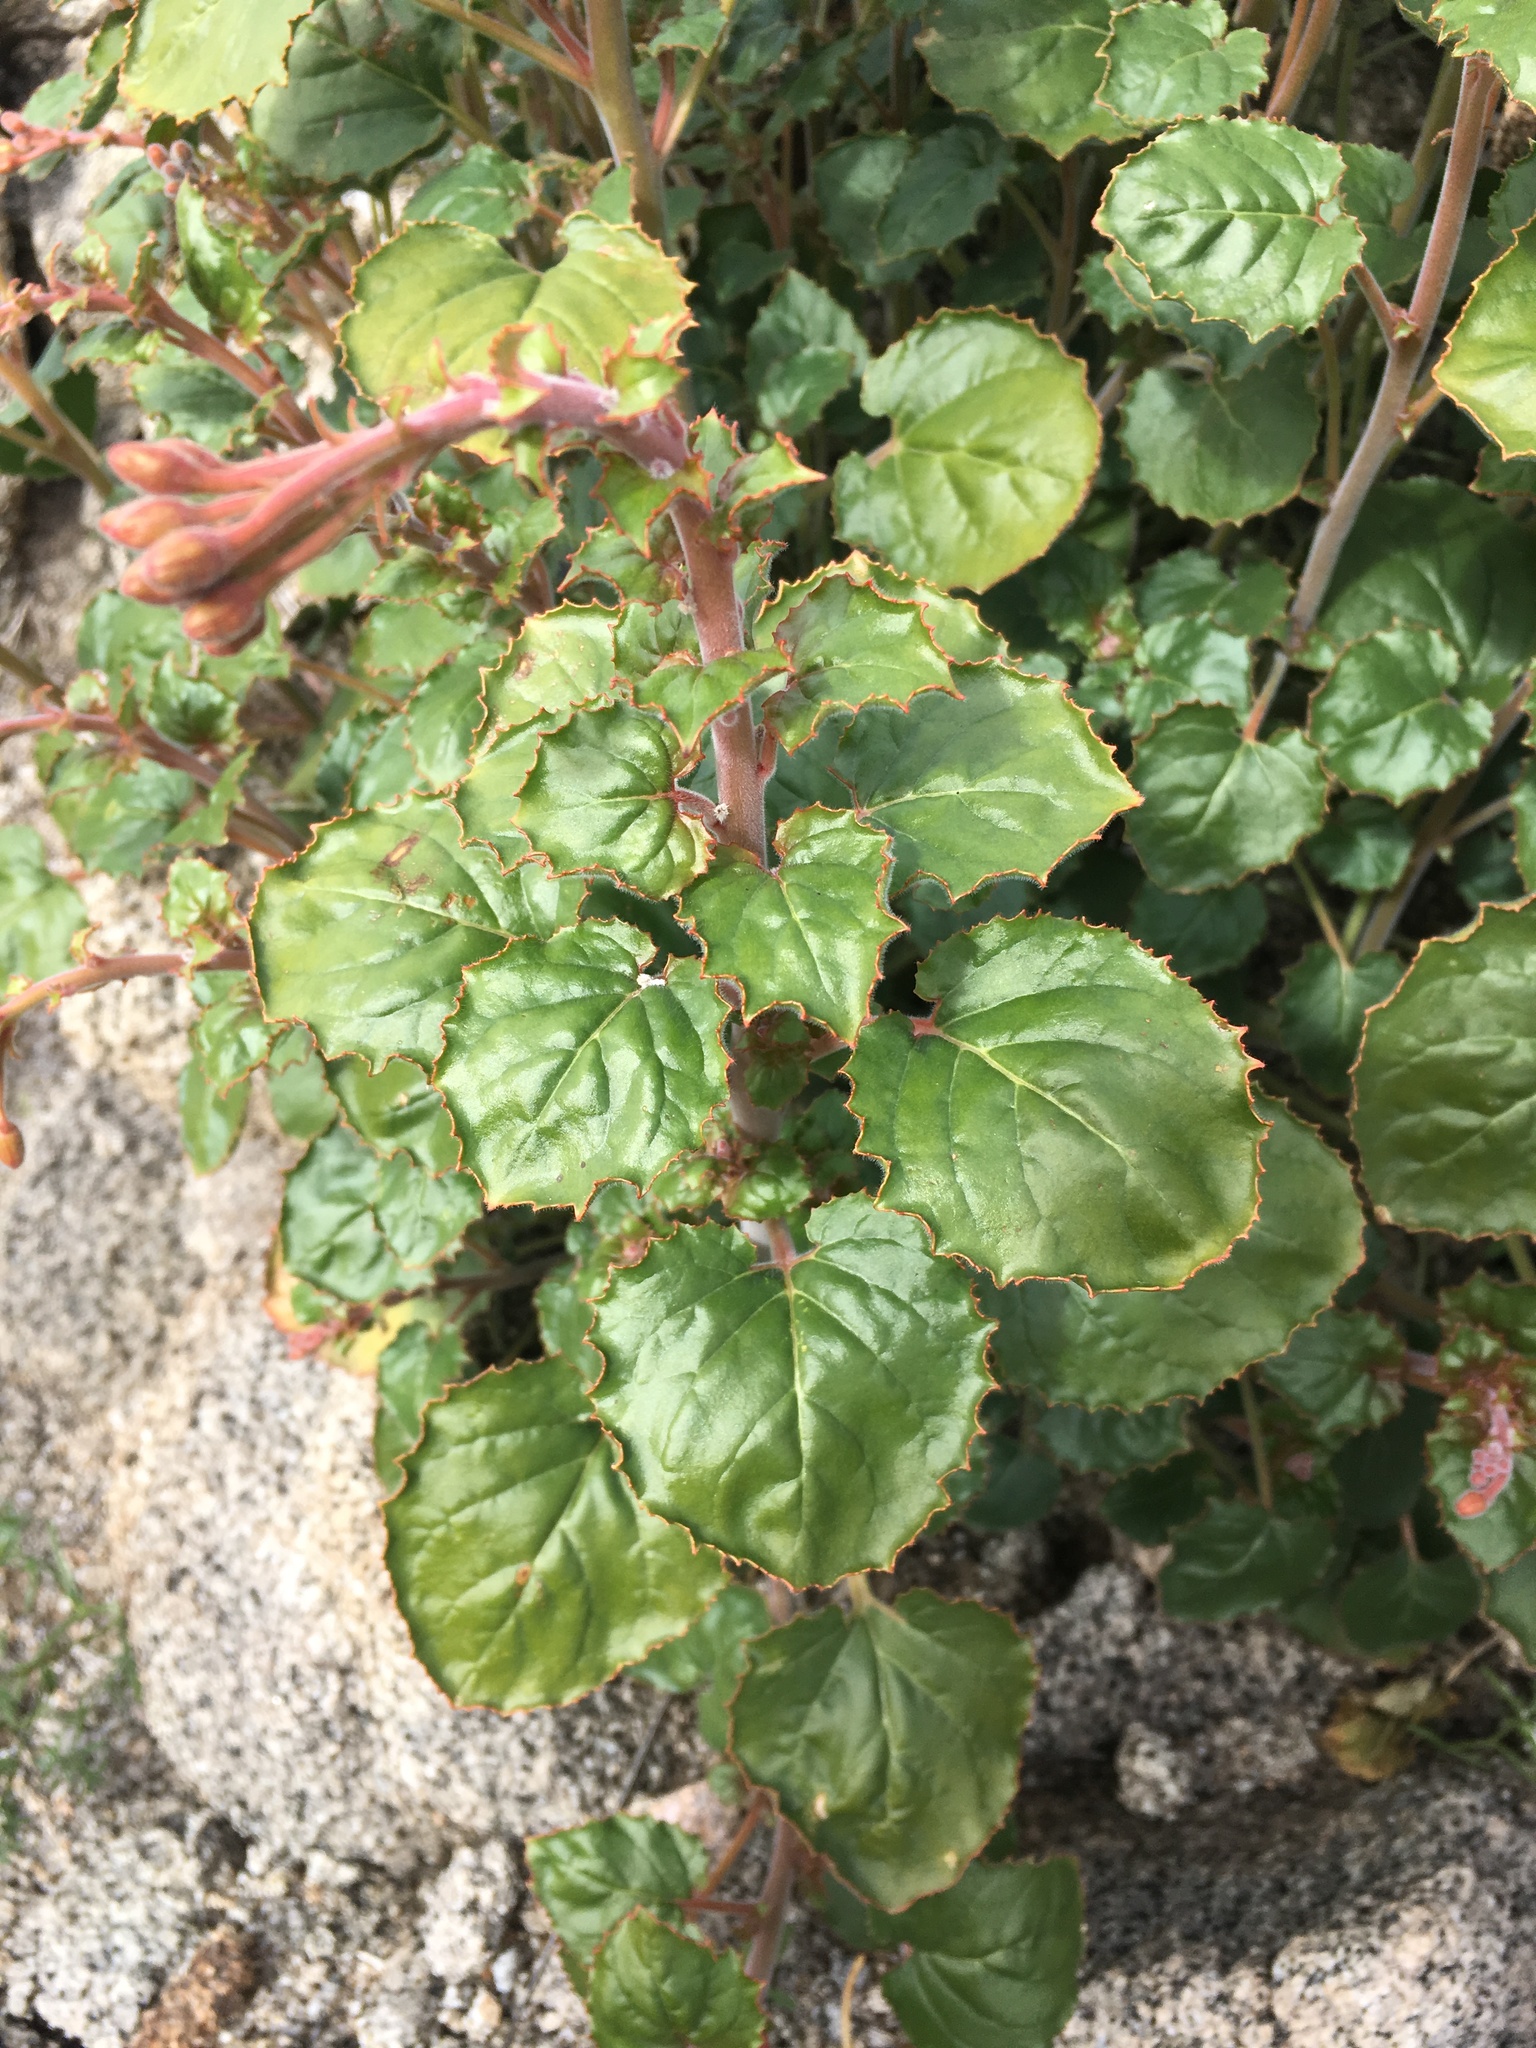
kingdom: Plantae
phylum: Tracheophyta
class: Magnoliopsida
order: Myrtales
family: Onagraceae
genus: Chylismia
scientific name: Chylismia cardiophylla
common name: Heartleaf suncup
